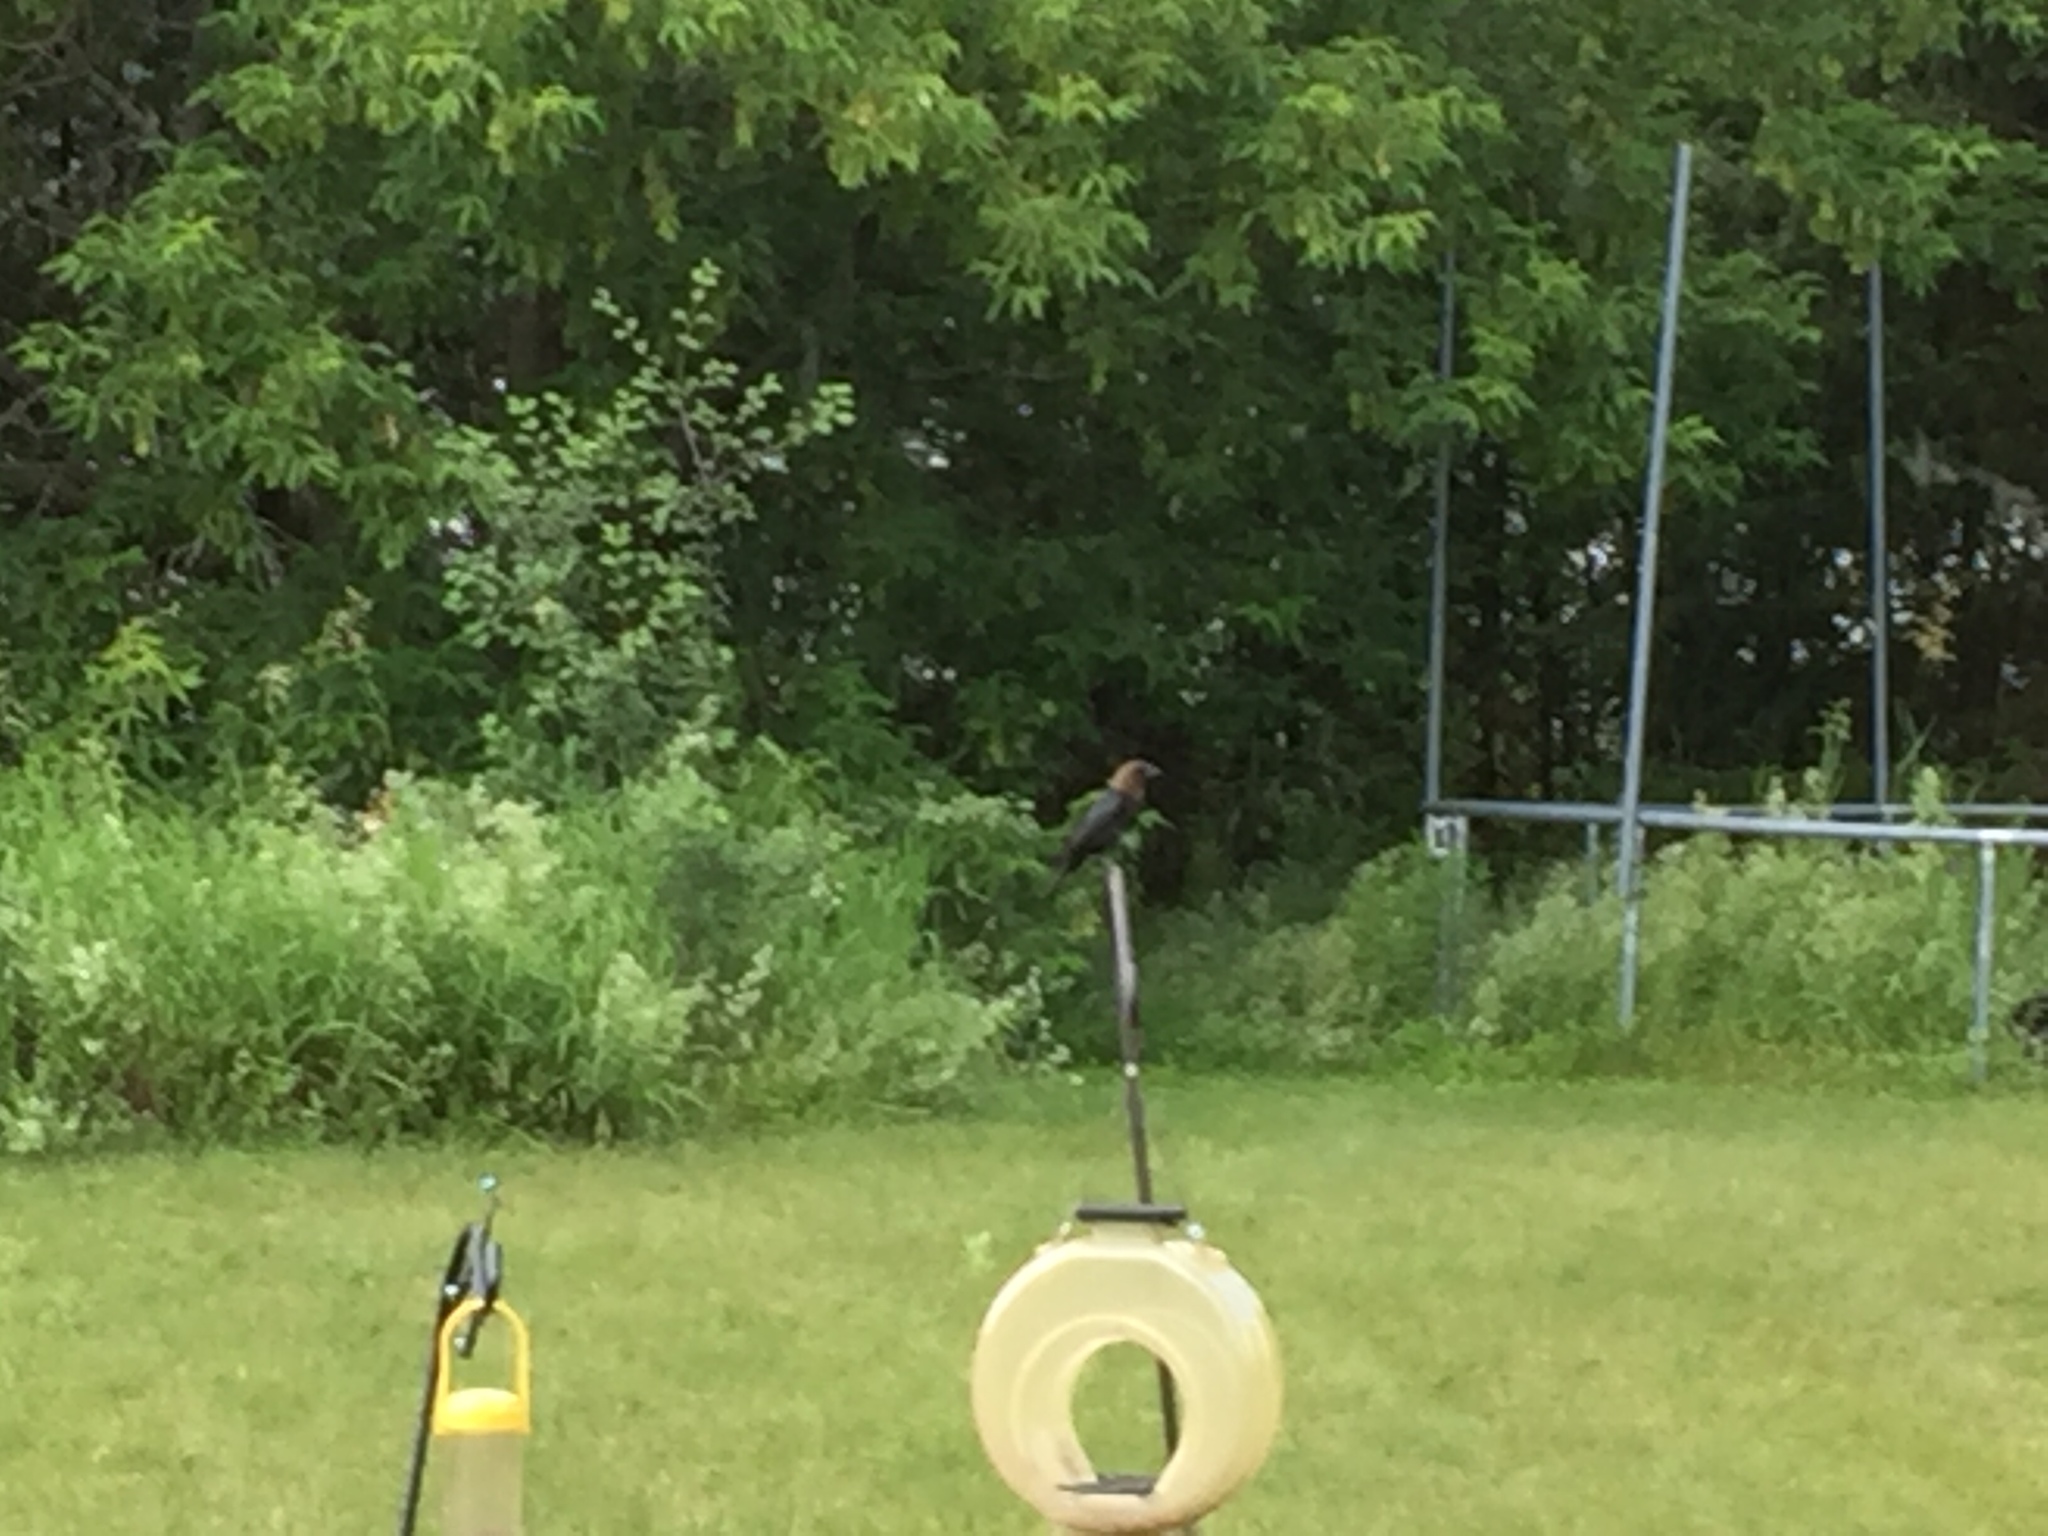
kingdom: Animalia
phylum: Chordata
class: Aves
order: Passeriformes
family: Icteridae
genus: Molothrus
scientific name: Molothrus ater
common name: Brown-headed cowbird
